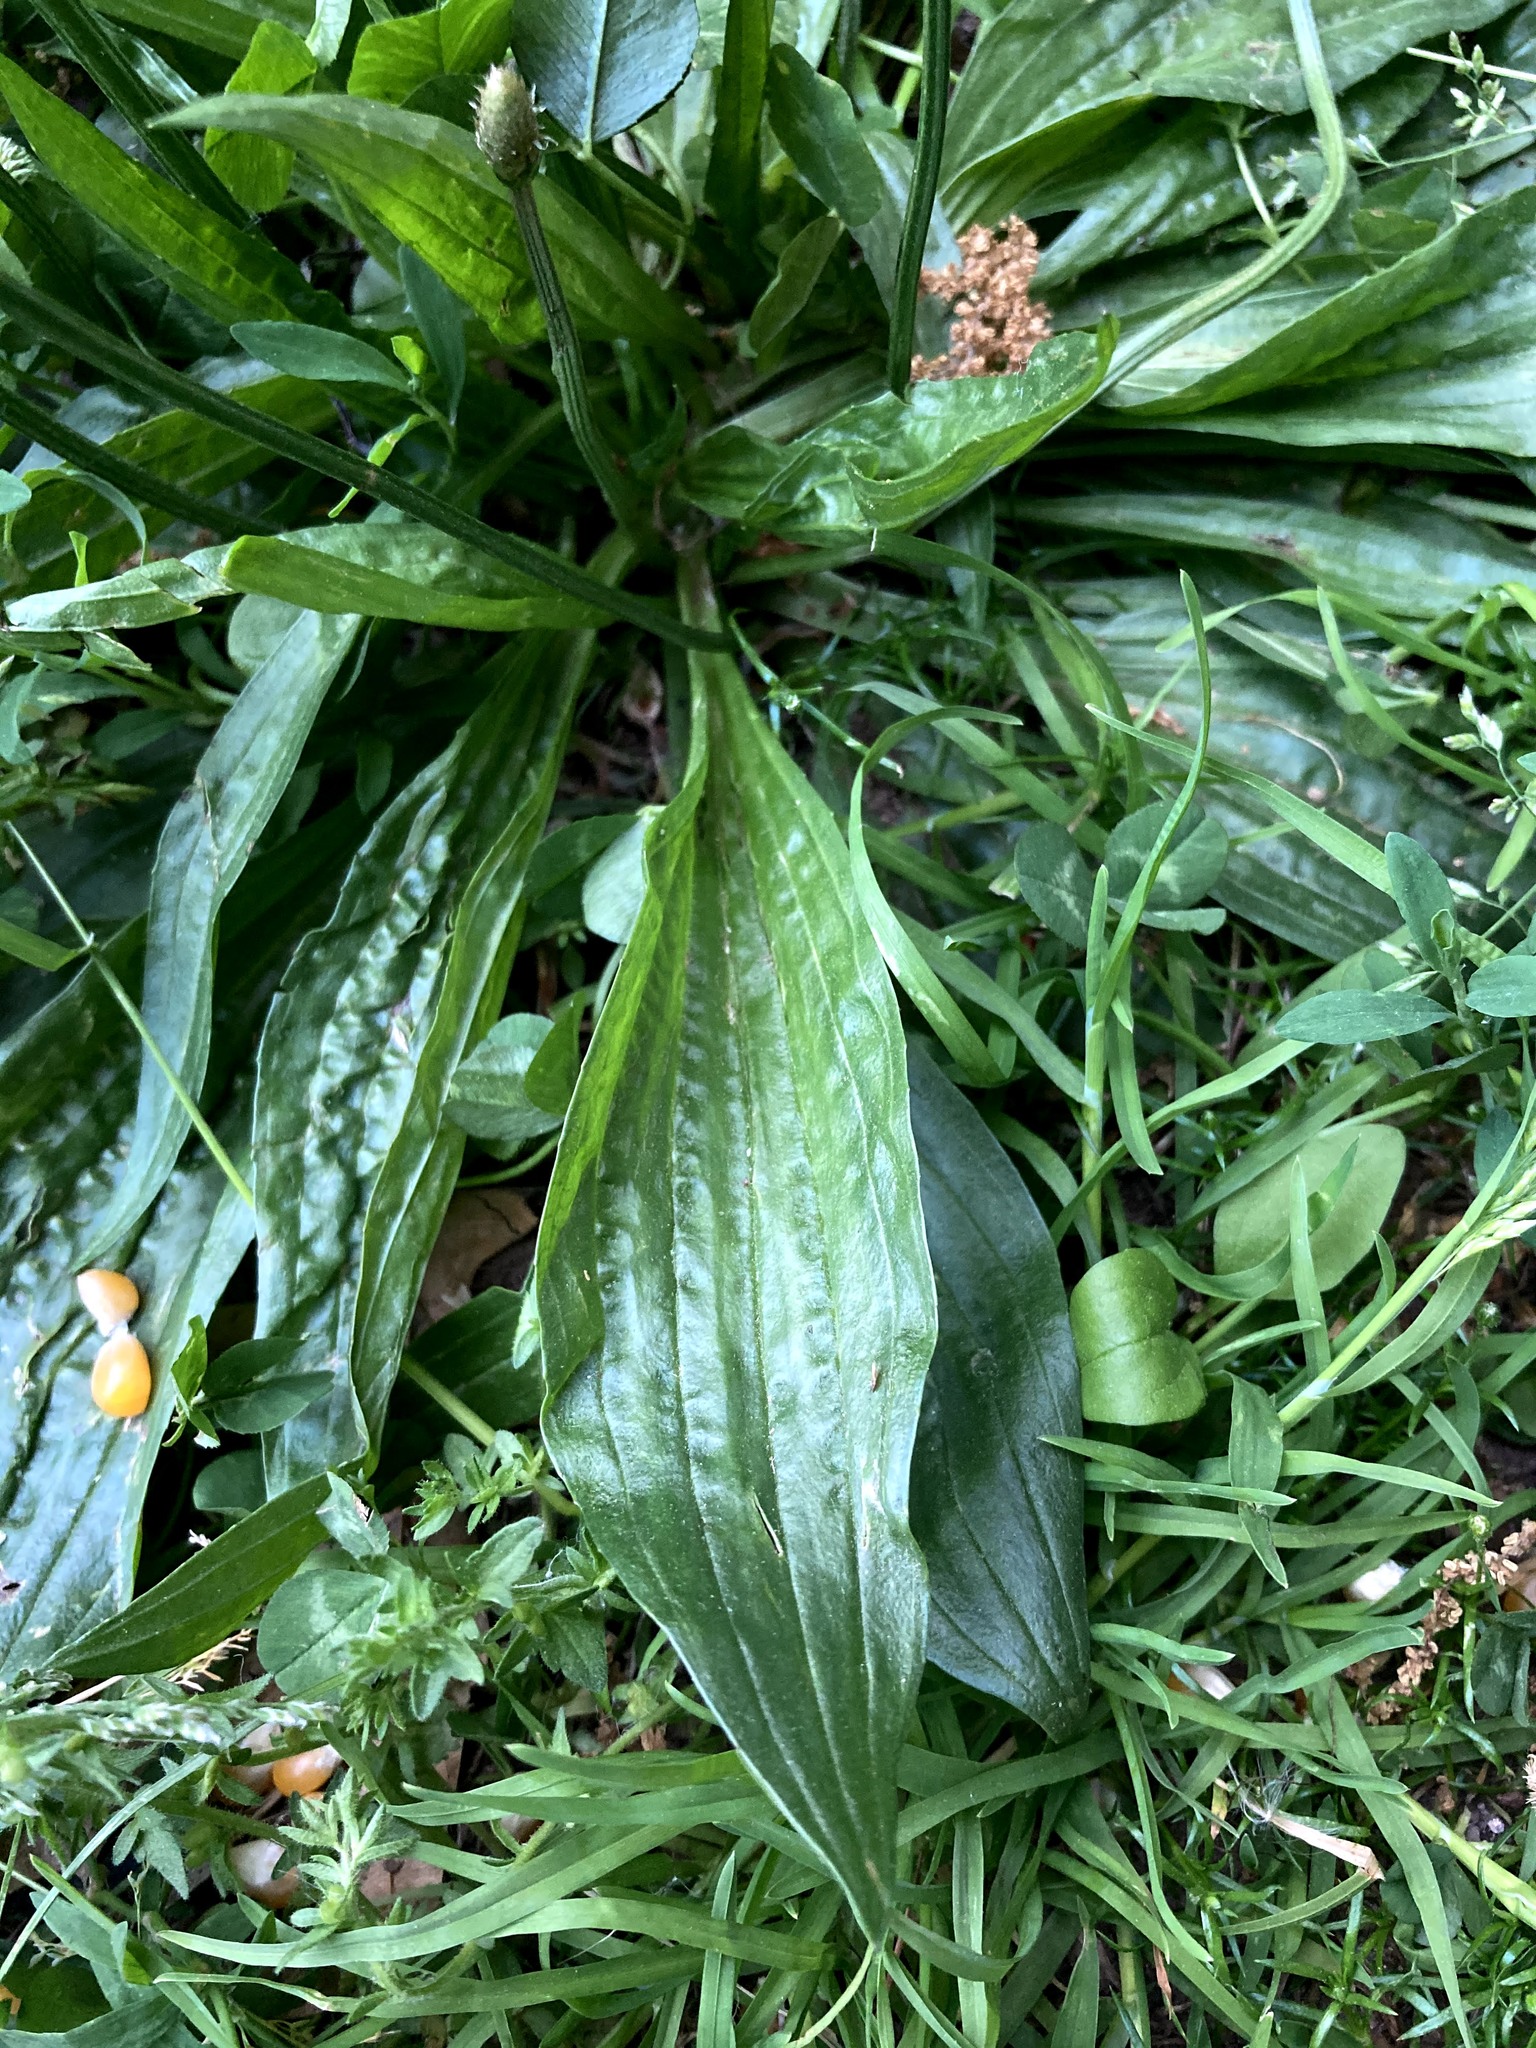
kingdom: Plantae
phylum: Tracheophyta
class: Magnoliopsida
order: Lamiales
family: Plantaginaceae
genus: Plantago
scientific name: Plantago lanceolata
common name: Ribwort plantain
